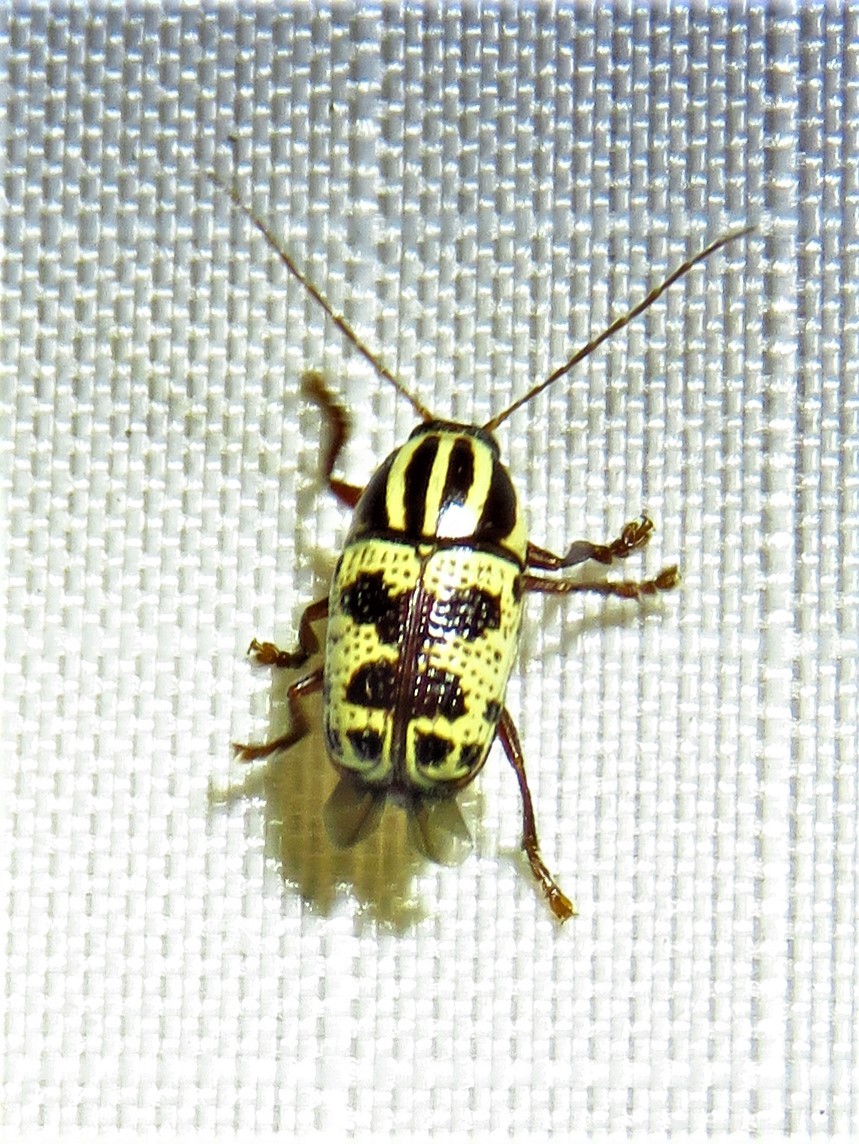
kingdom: Animalia
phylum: Arthropoda
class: Insecta
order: Coleoptera
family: Chrysomelidae
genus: Cryptocephalus
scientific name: Cryptocephalus leucomelas
